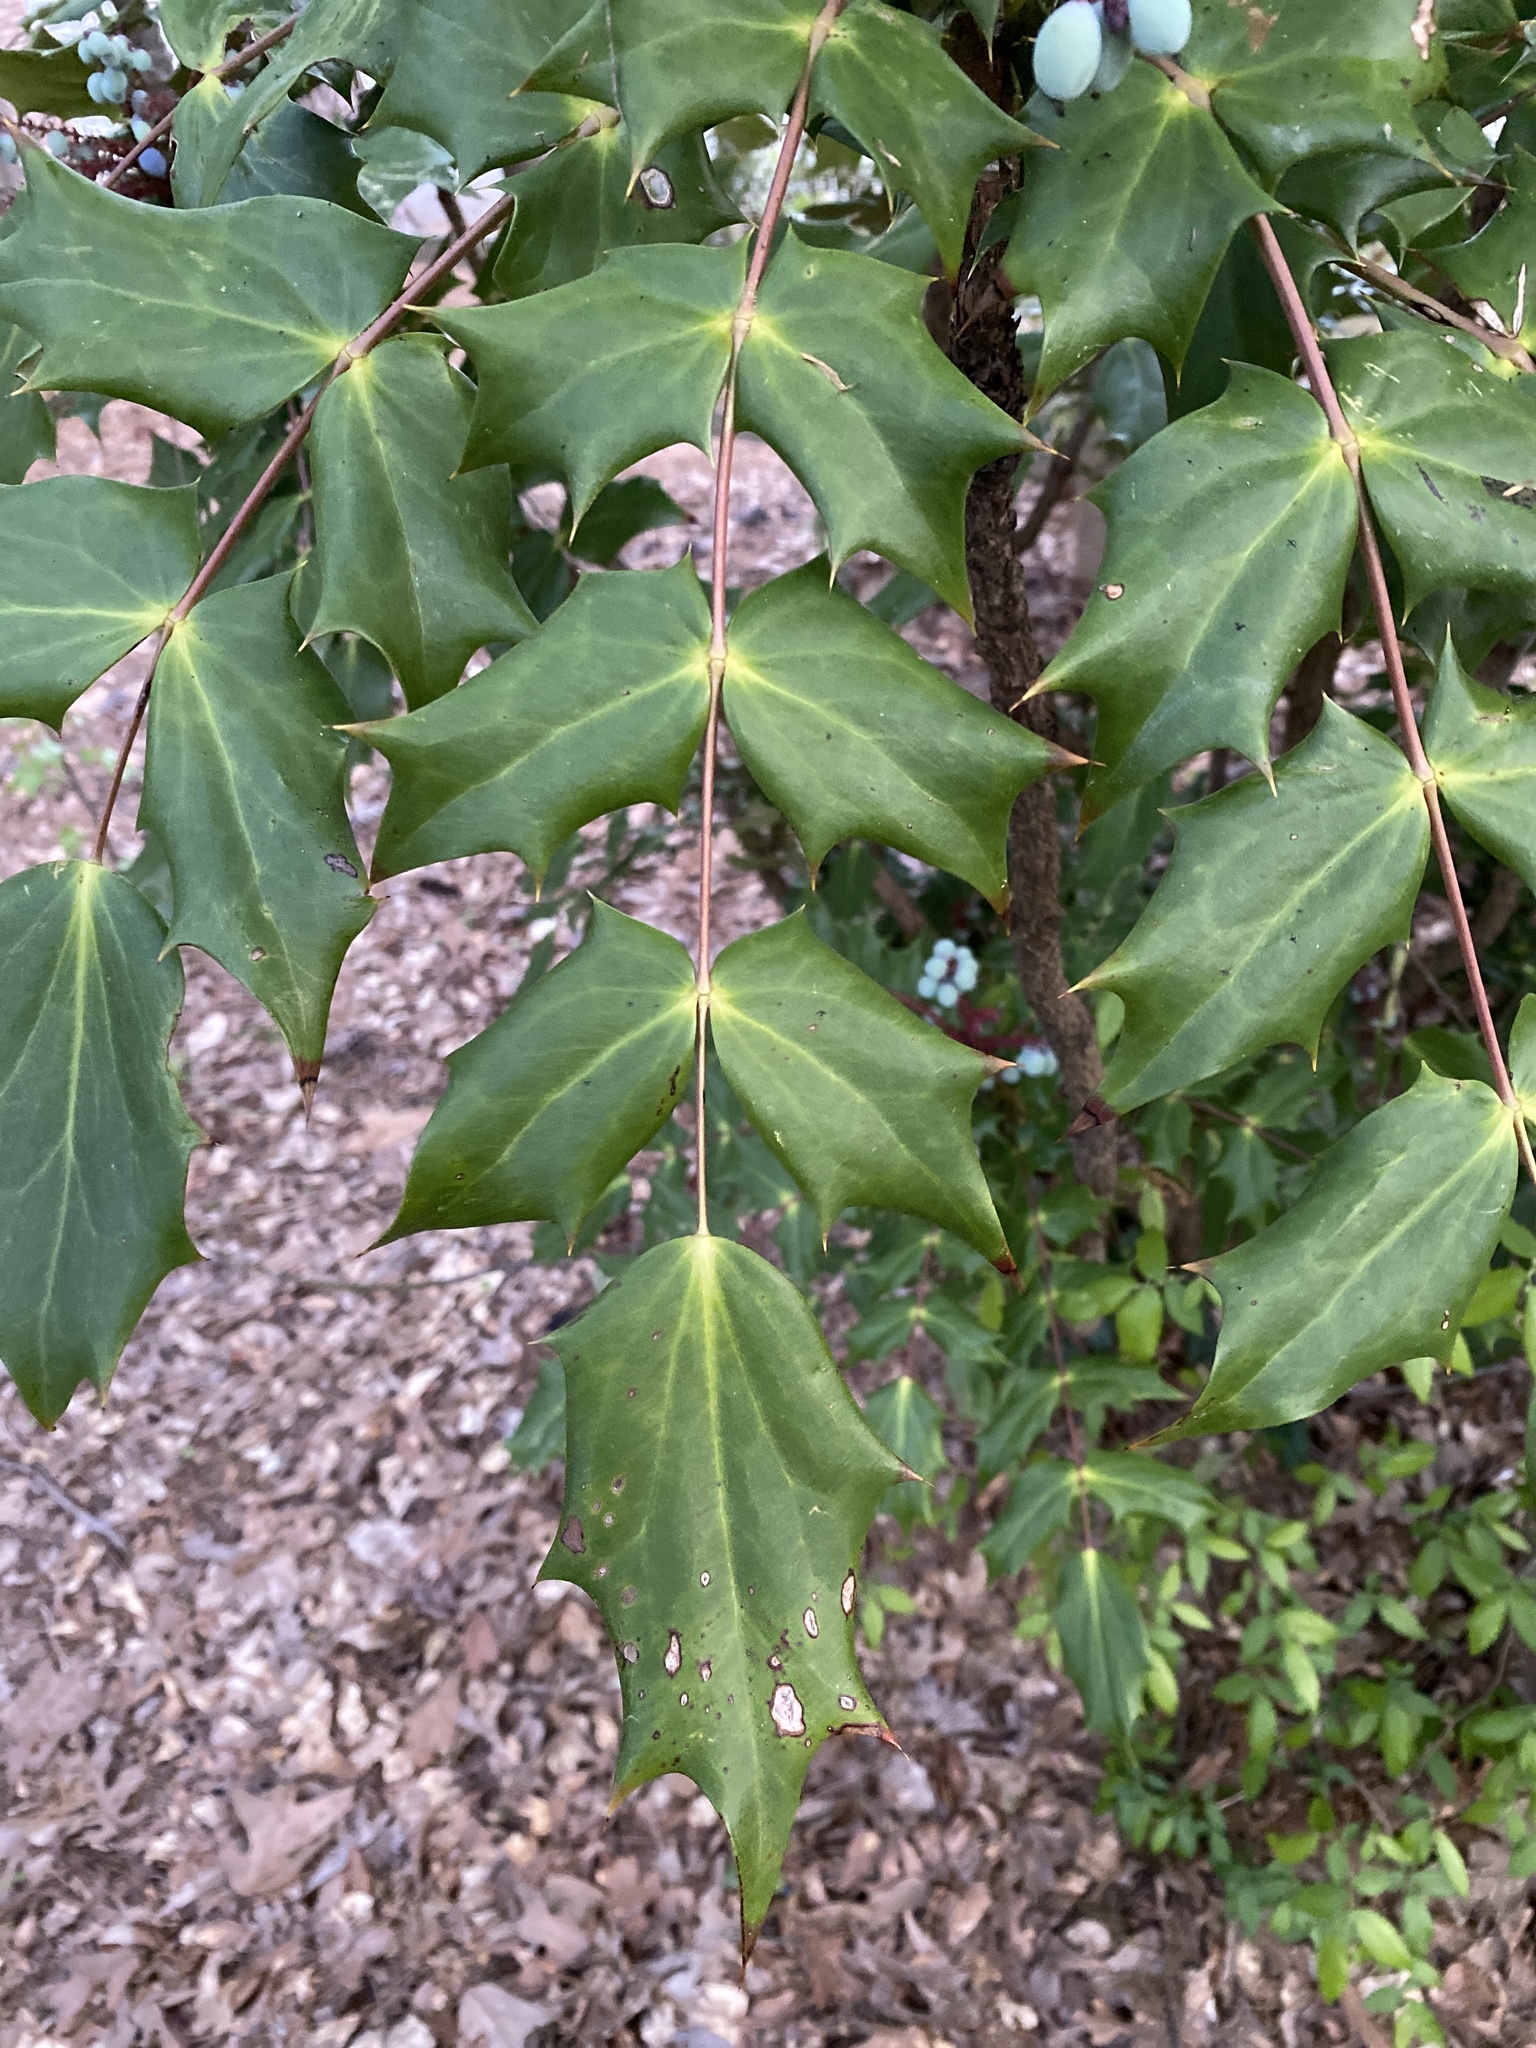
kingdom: Plantae
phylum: Tracheophyta
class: Magnoliopsida
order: Ranunculales
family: Berberidaceae
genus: Mahonia
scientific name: Mahonia bealei
